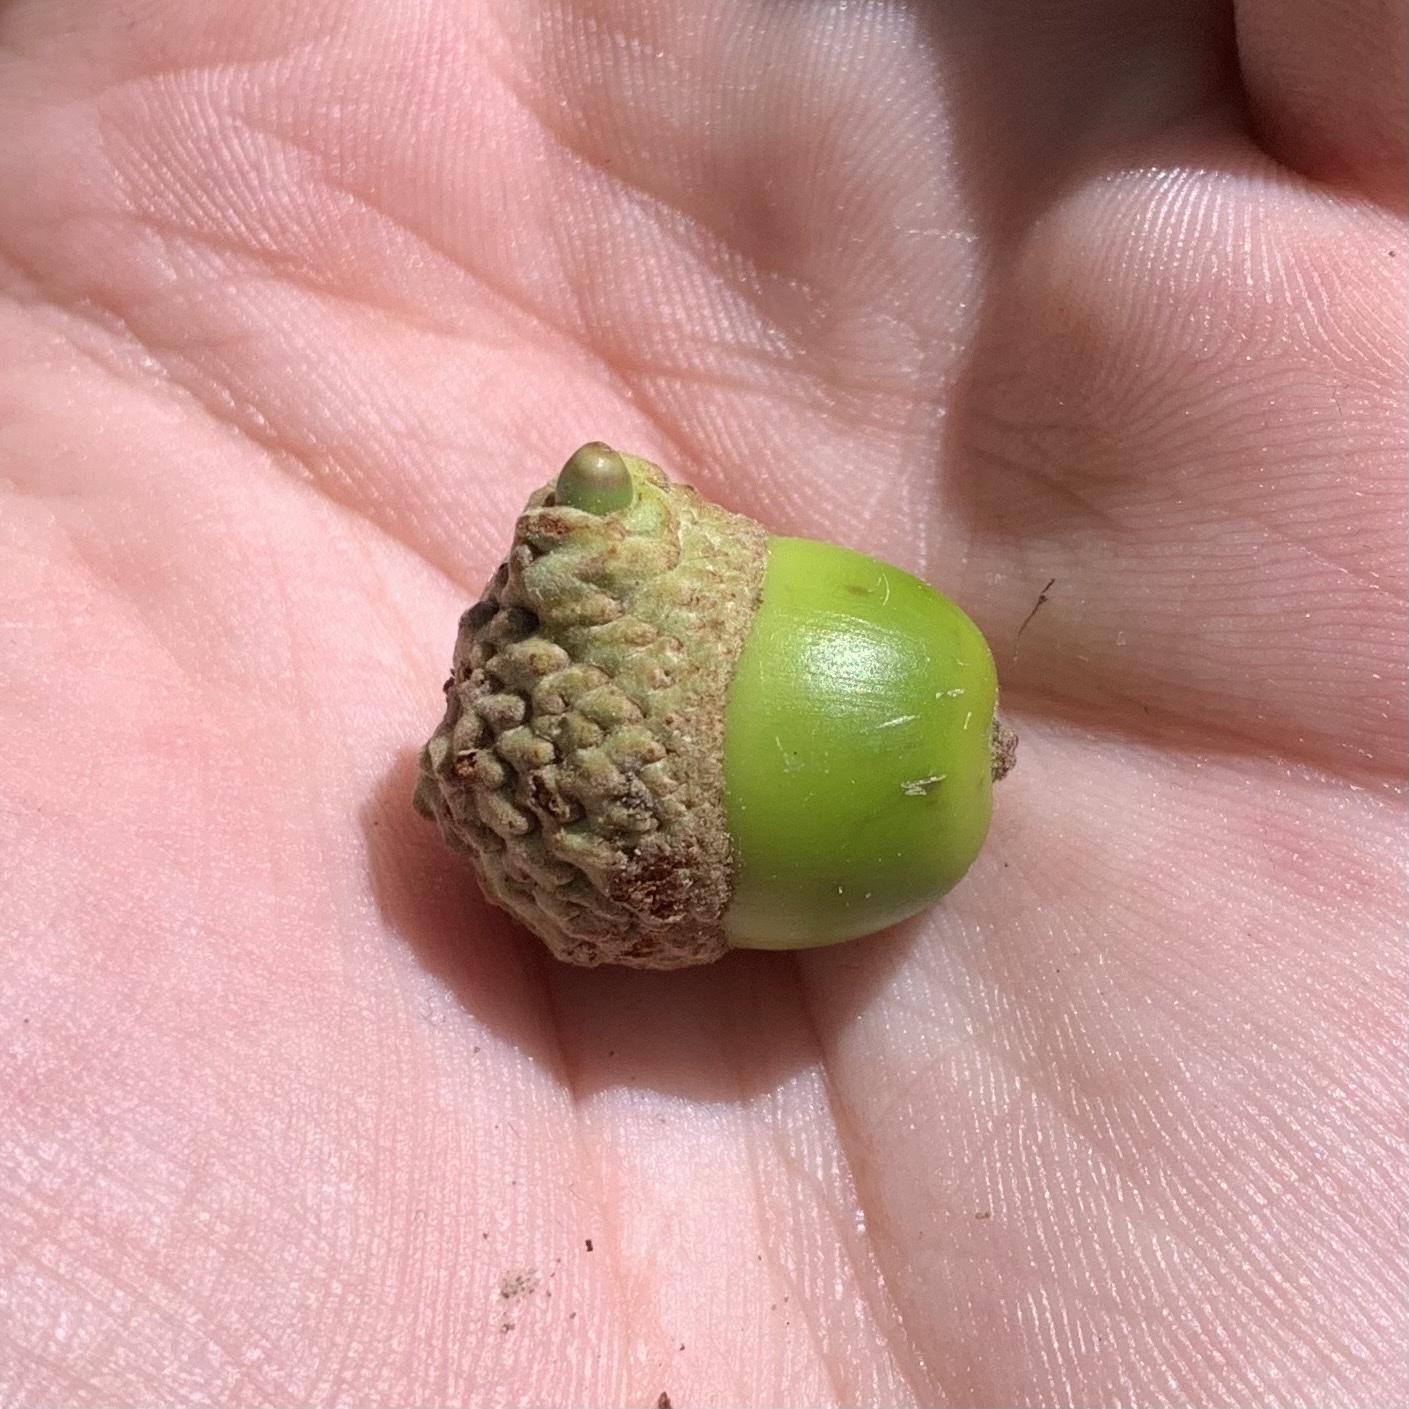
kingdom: Animalia
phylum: Arthropoda
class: Insecta
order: Hymenoptera
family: Cynipidae
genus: Callirhytis
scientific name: Callirhytis glandium
